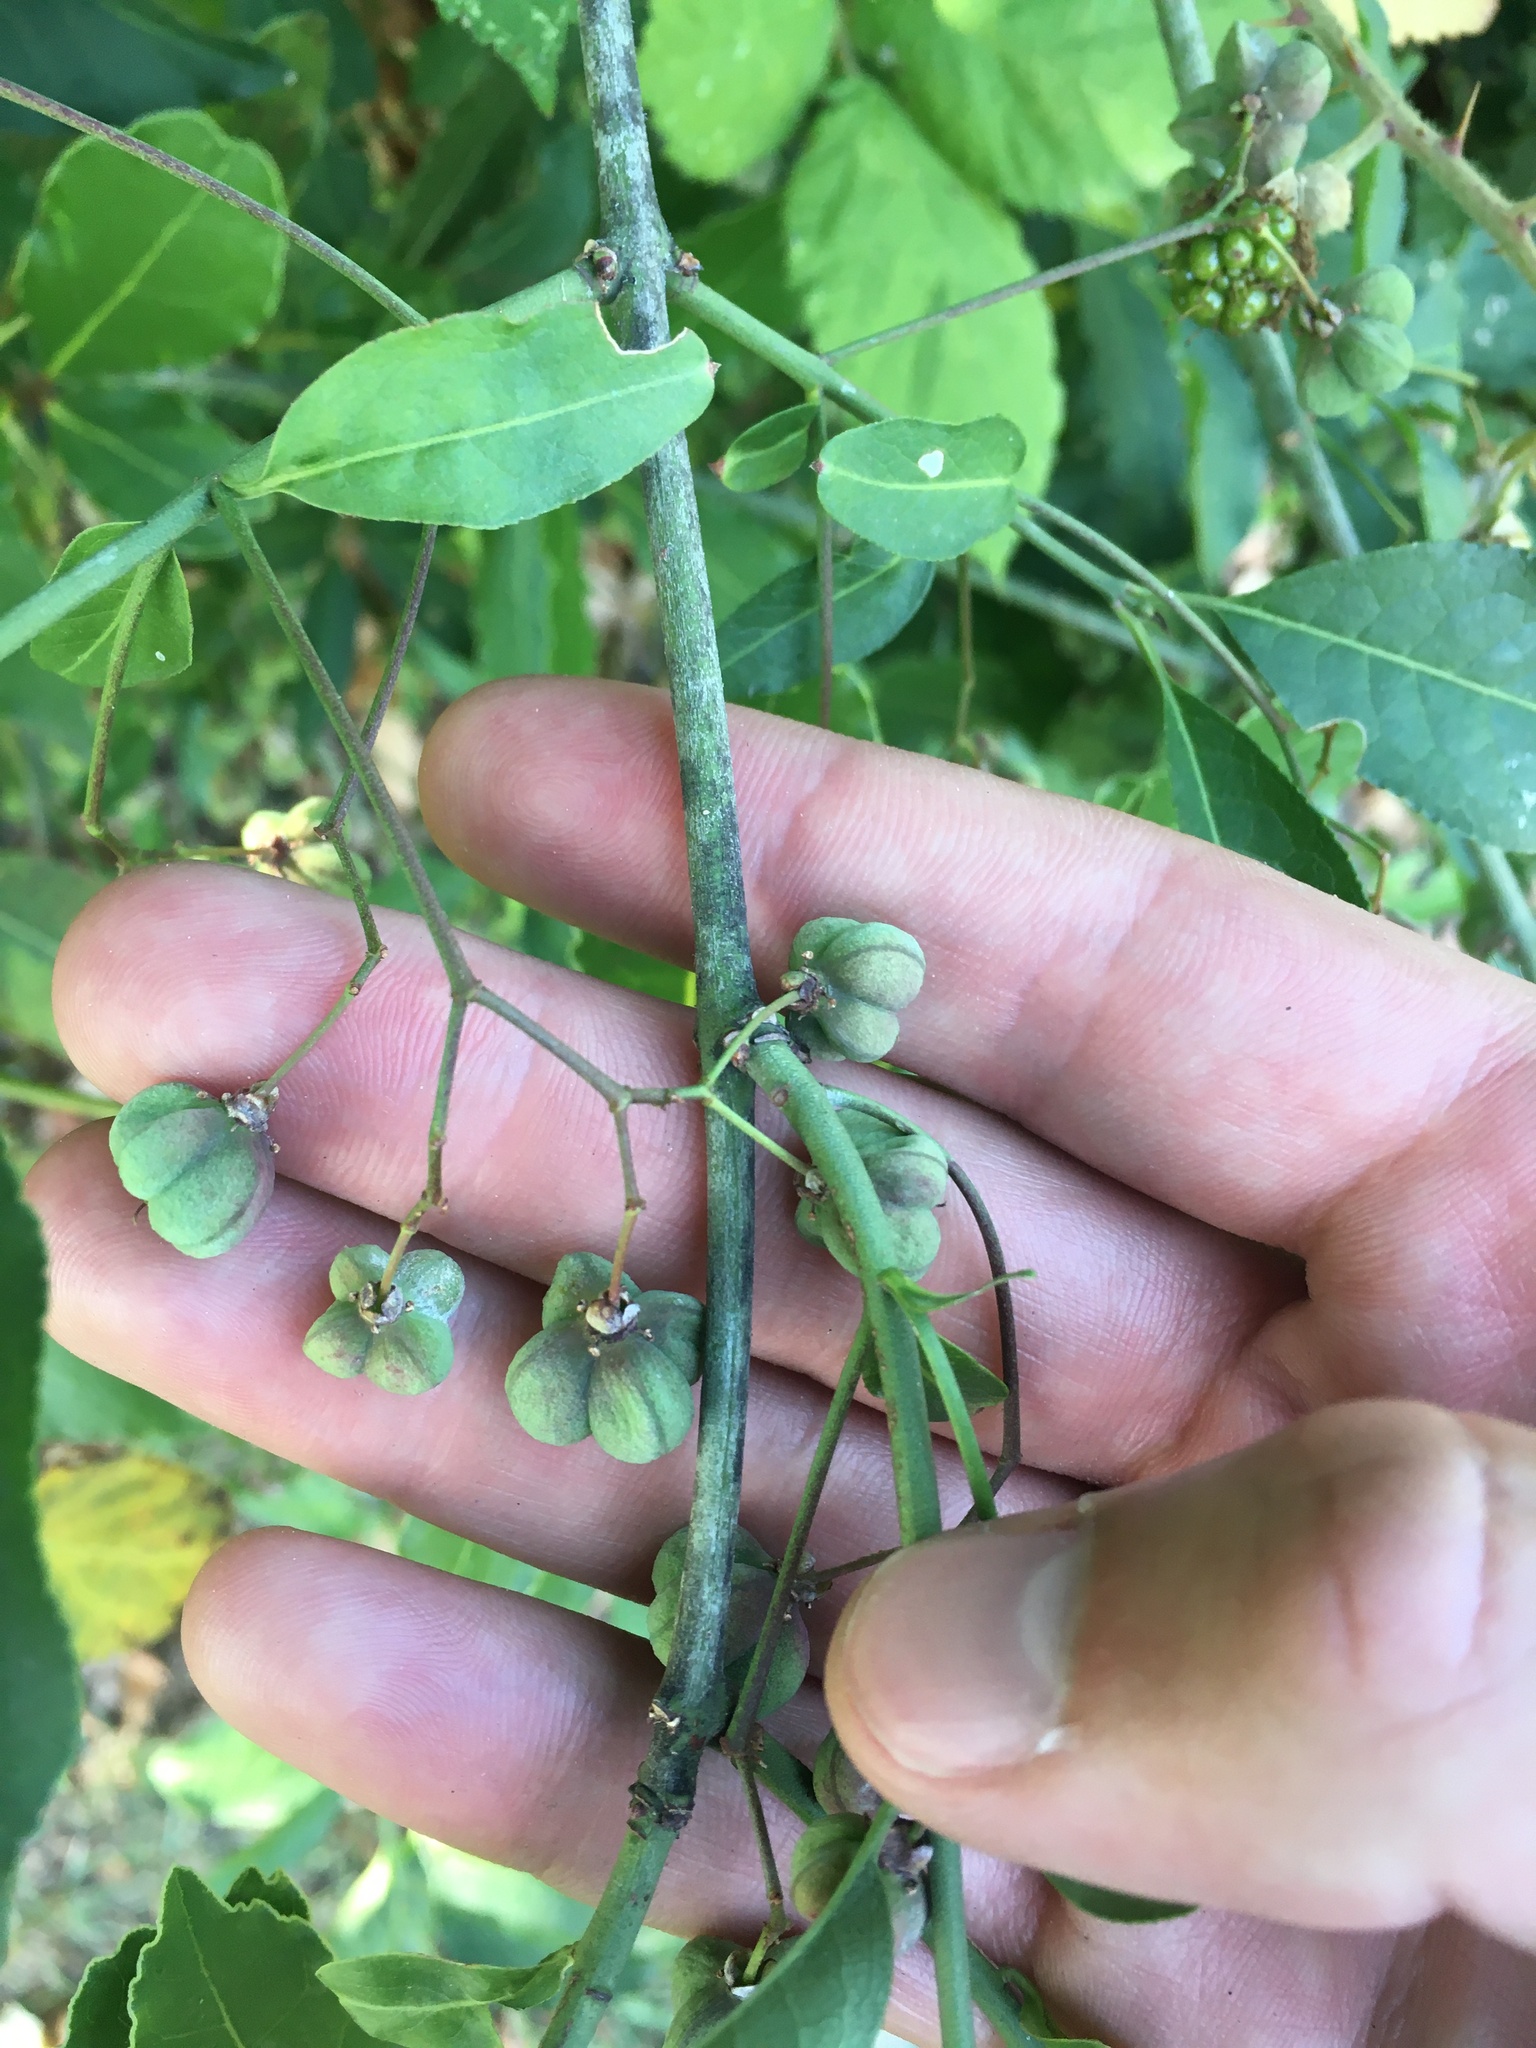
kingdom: Plantae
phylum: Tracheophyta
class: Magnoliopsida
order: Celastrales
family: Celastraceae
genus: Euonymus
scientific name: Euonymus europaeus
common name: Spindle
